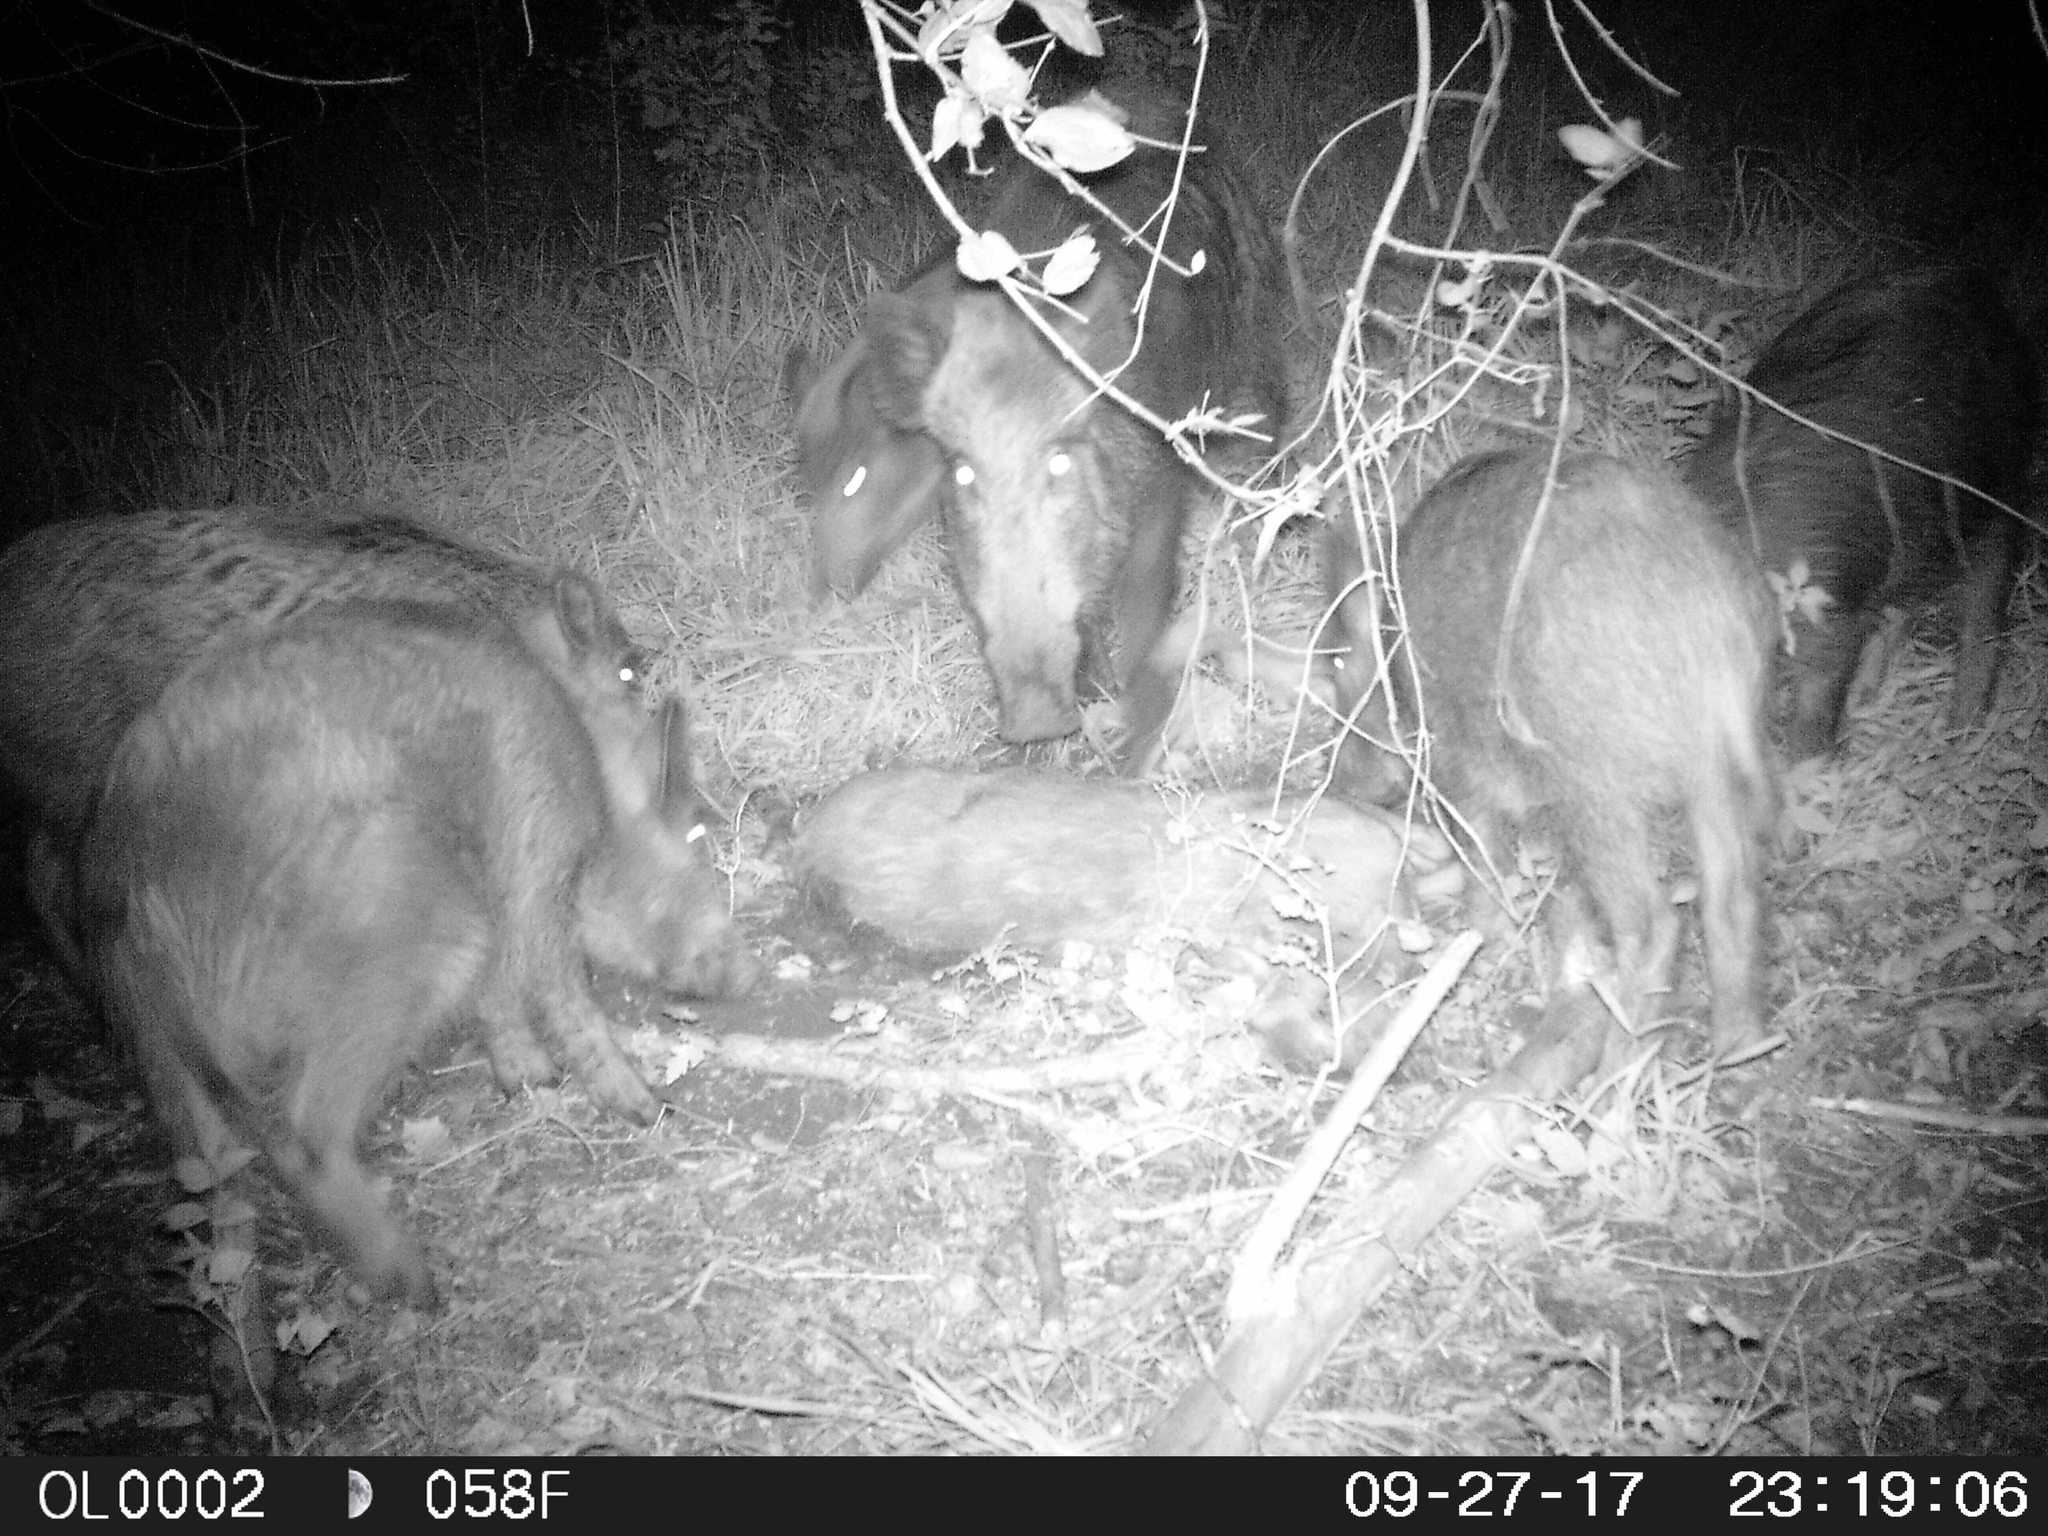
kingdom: Animalia
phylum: Chordata
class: Mammalia
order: Artiodactyla
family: Suidae
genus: Sus
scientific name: Sus scrofa
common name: Wild boar
